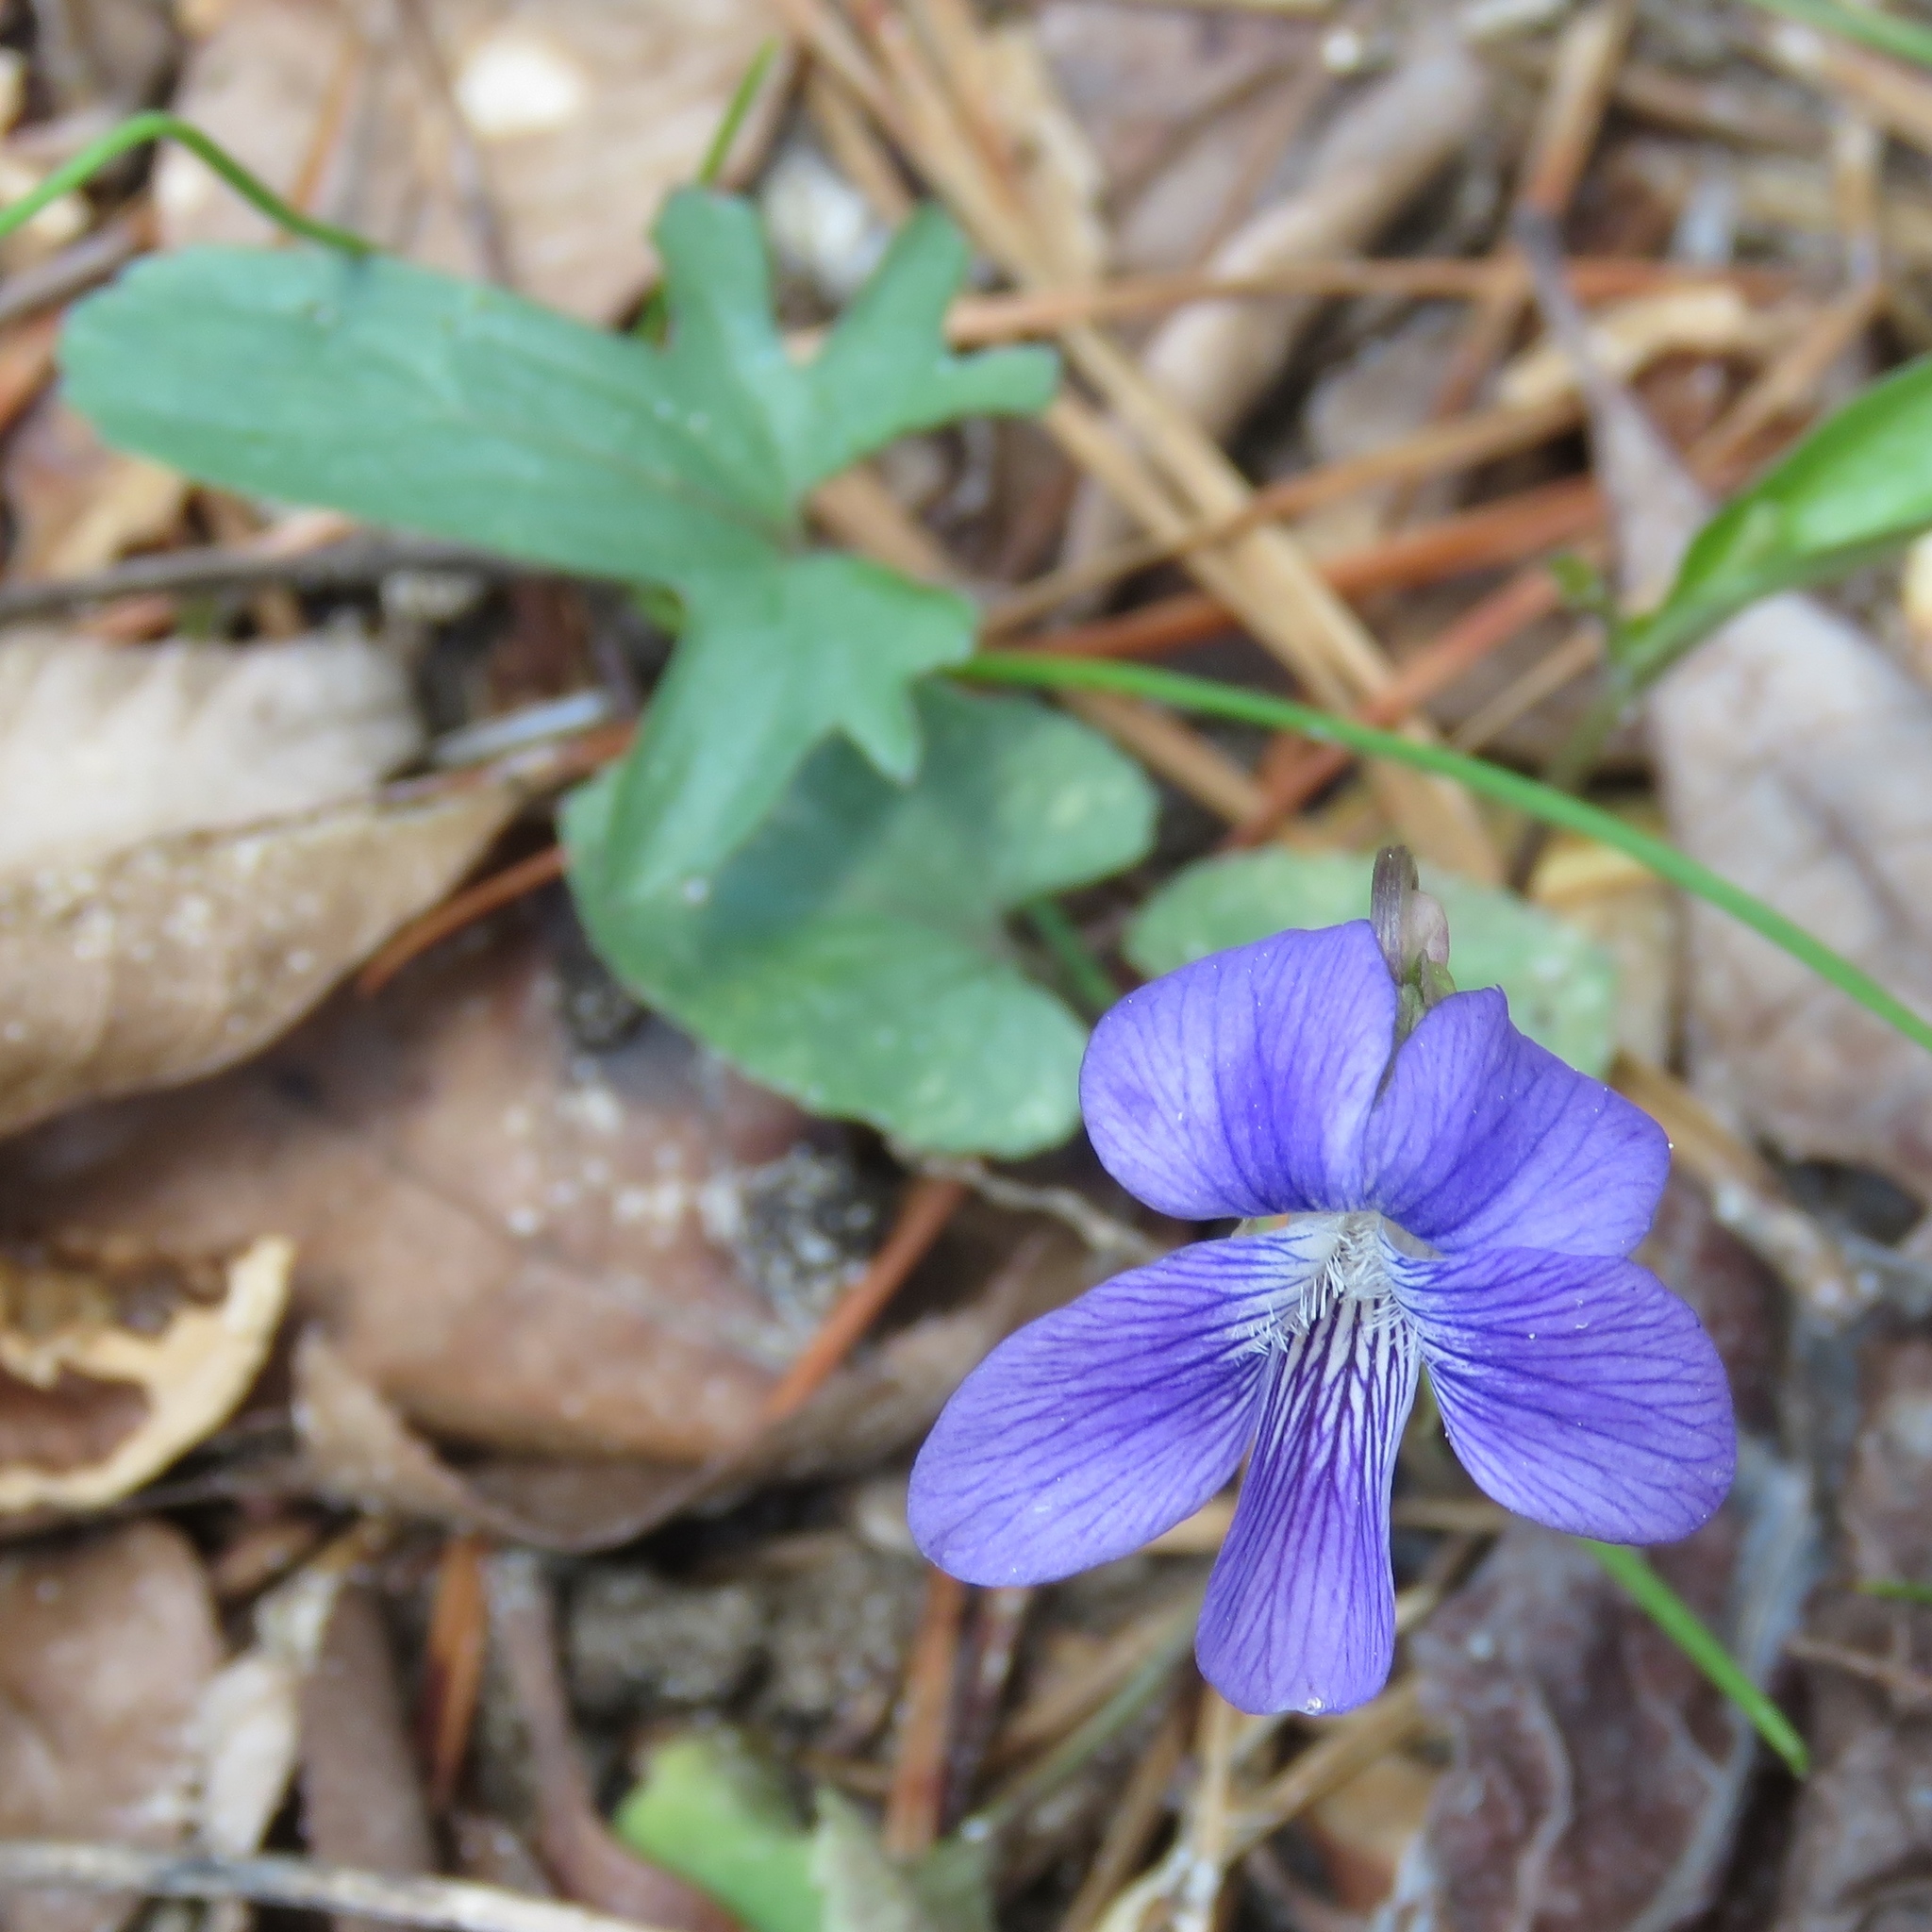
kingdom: Plantae
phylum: Tracheophyta
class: Magnoliopsida
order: Malpighiales
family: Violaceae
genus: Viola
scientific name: Viola palmata
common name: Early blue violet
